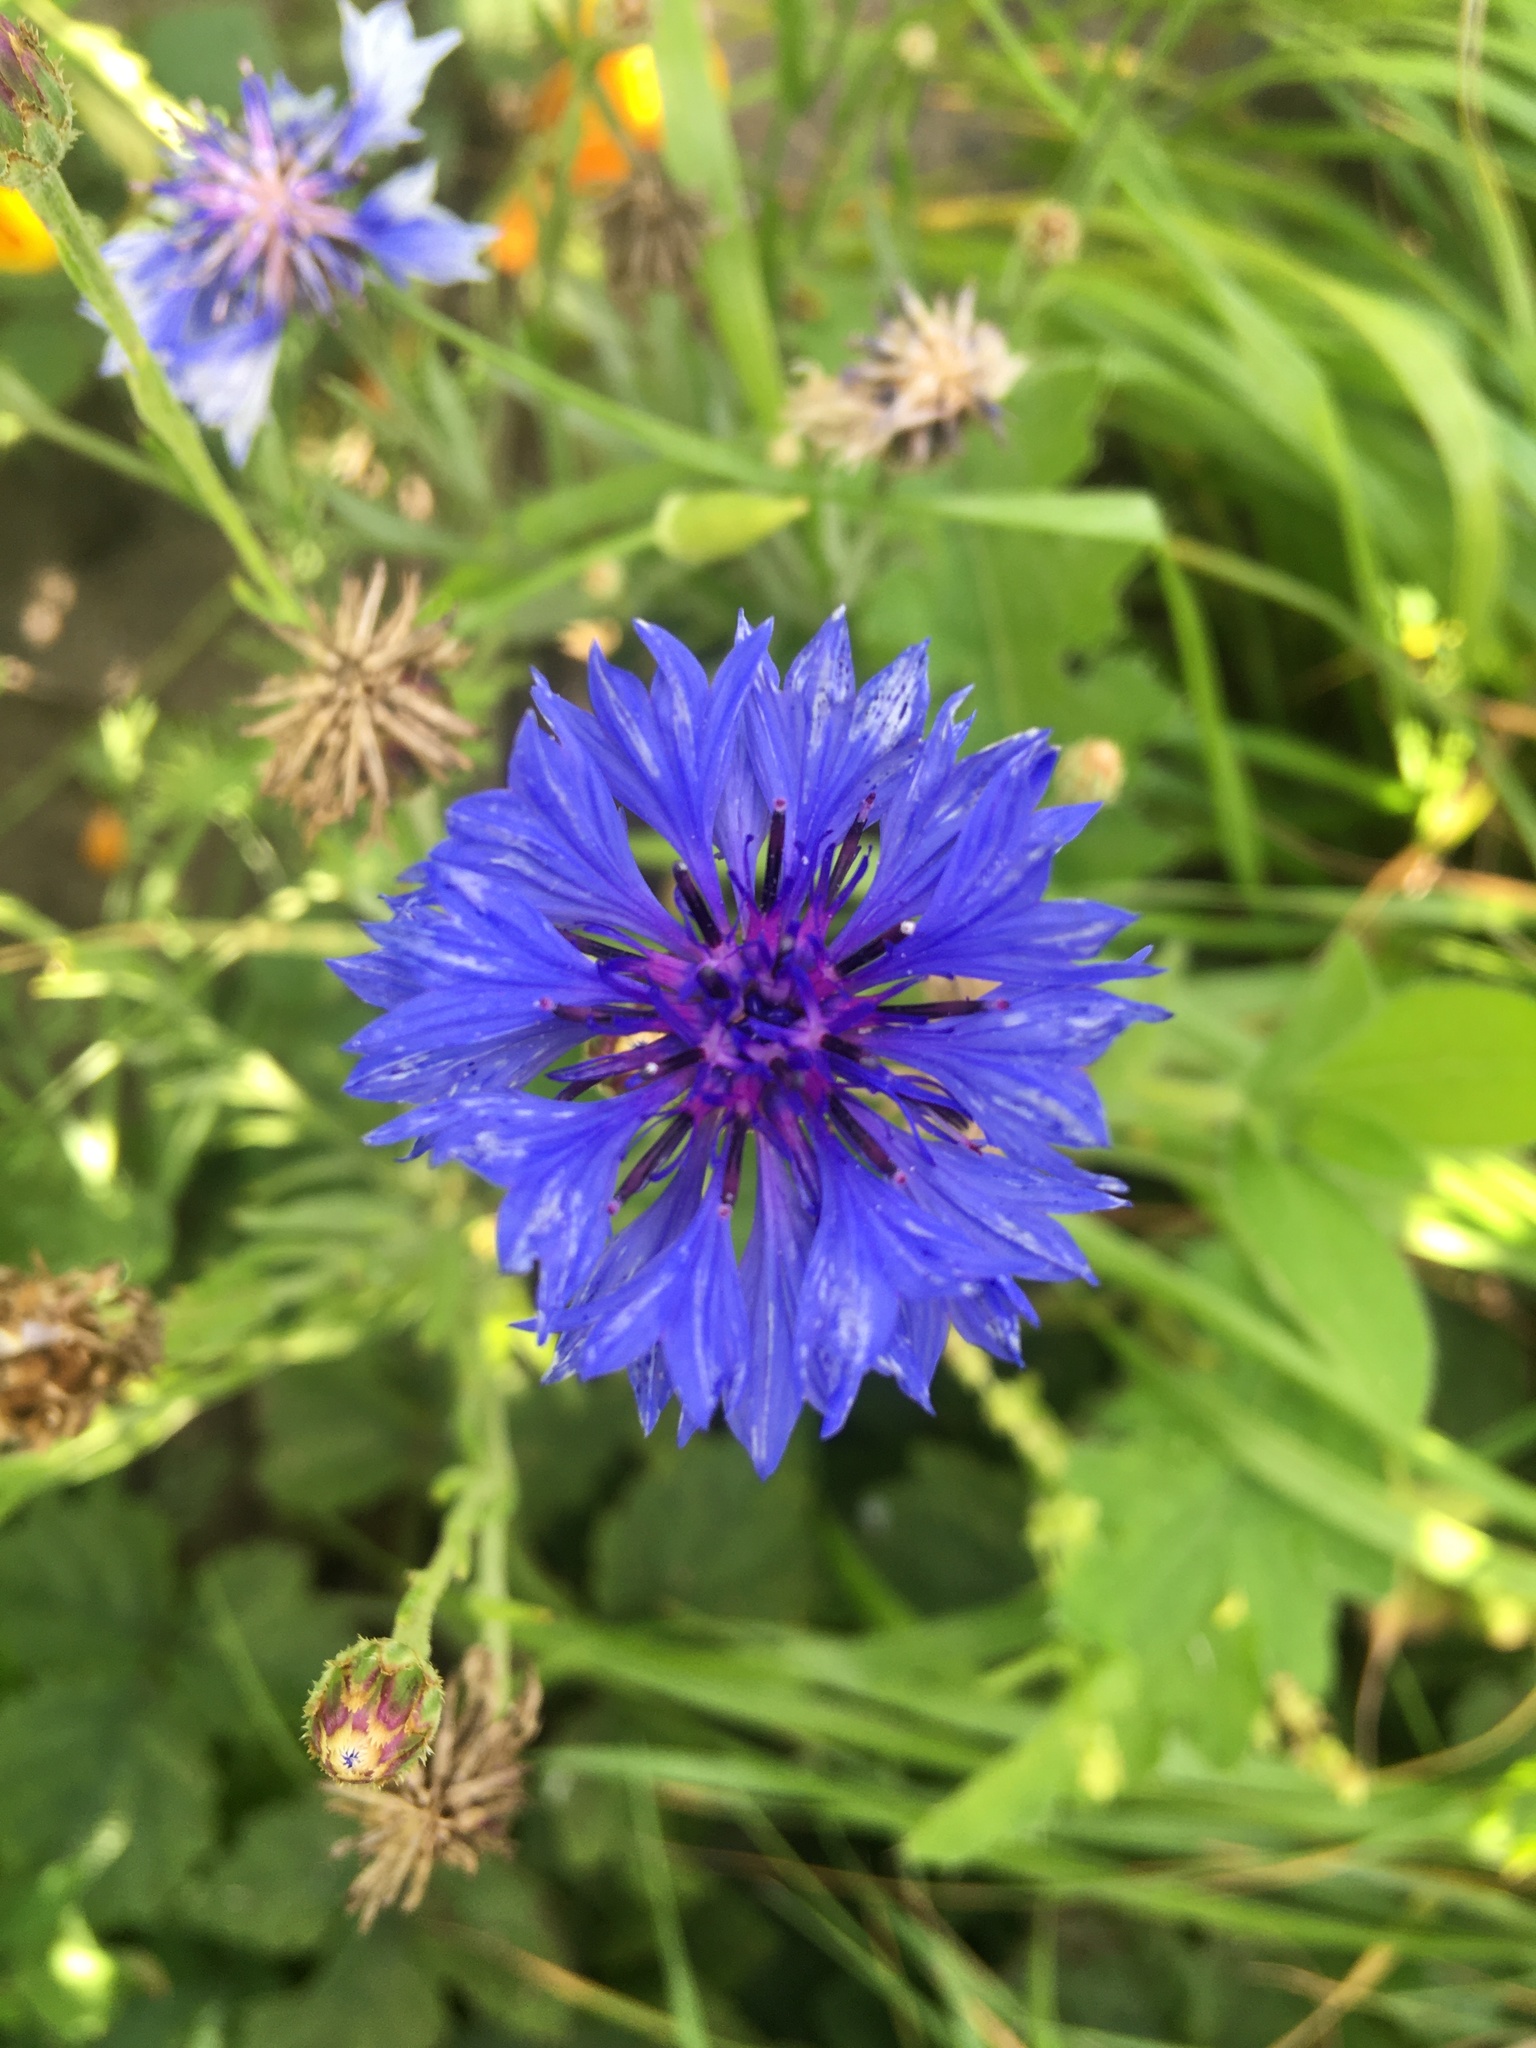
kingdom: Plantae
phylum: Tracheophyta
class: Magnoliopsida
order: Asterales
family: Asteraceae
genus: Centaurea
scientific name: Centaurea cyanus
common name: Cornflower
